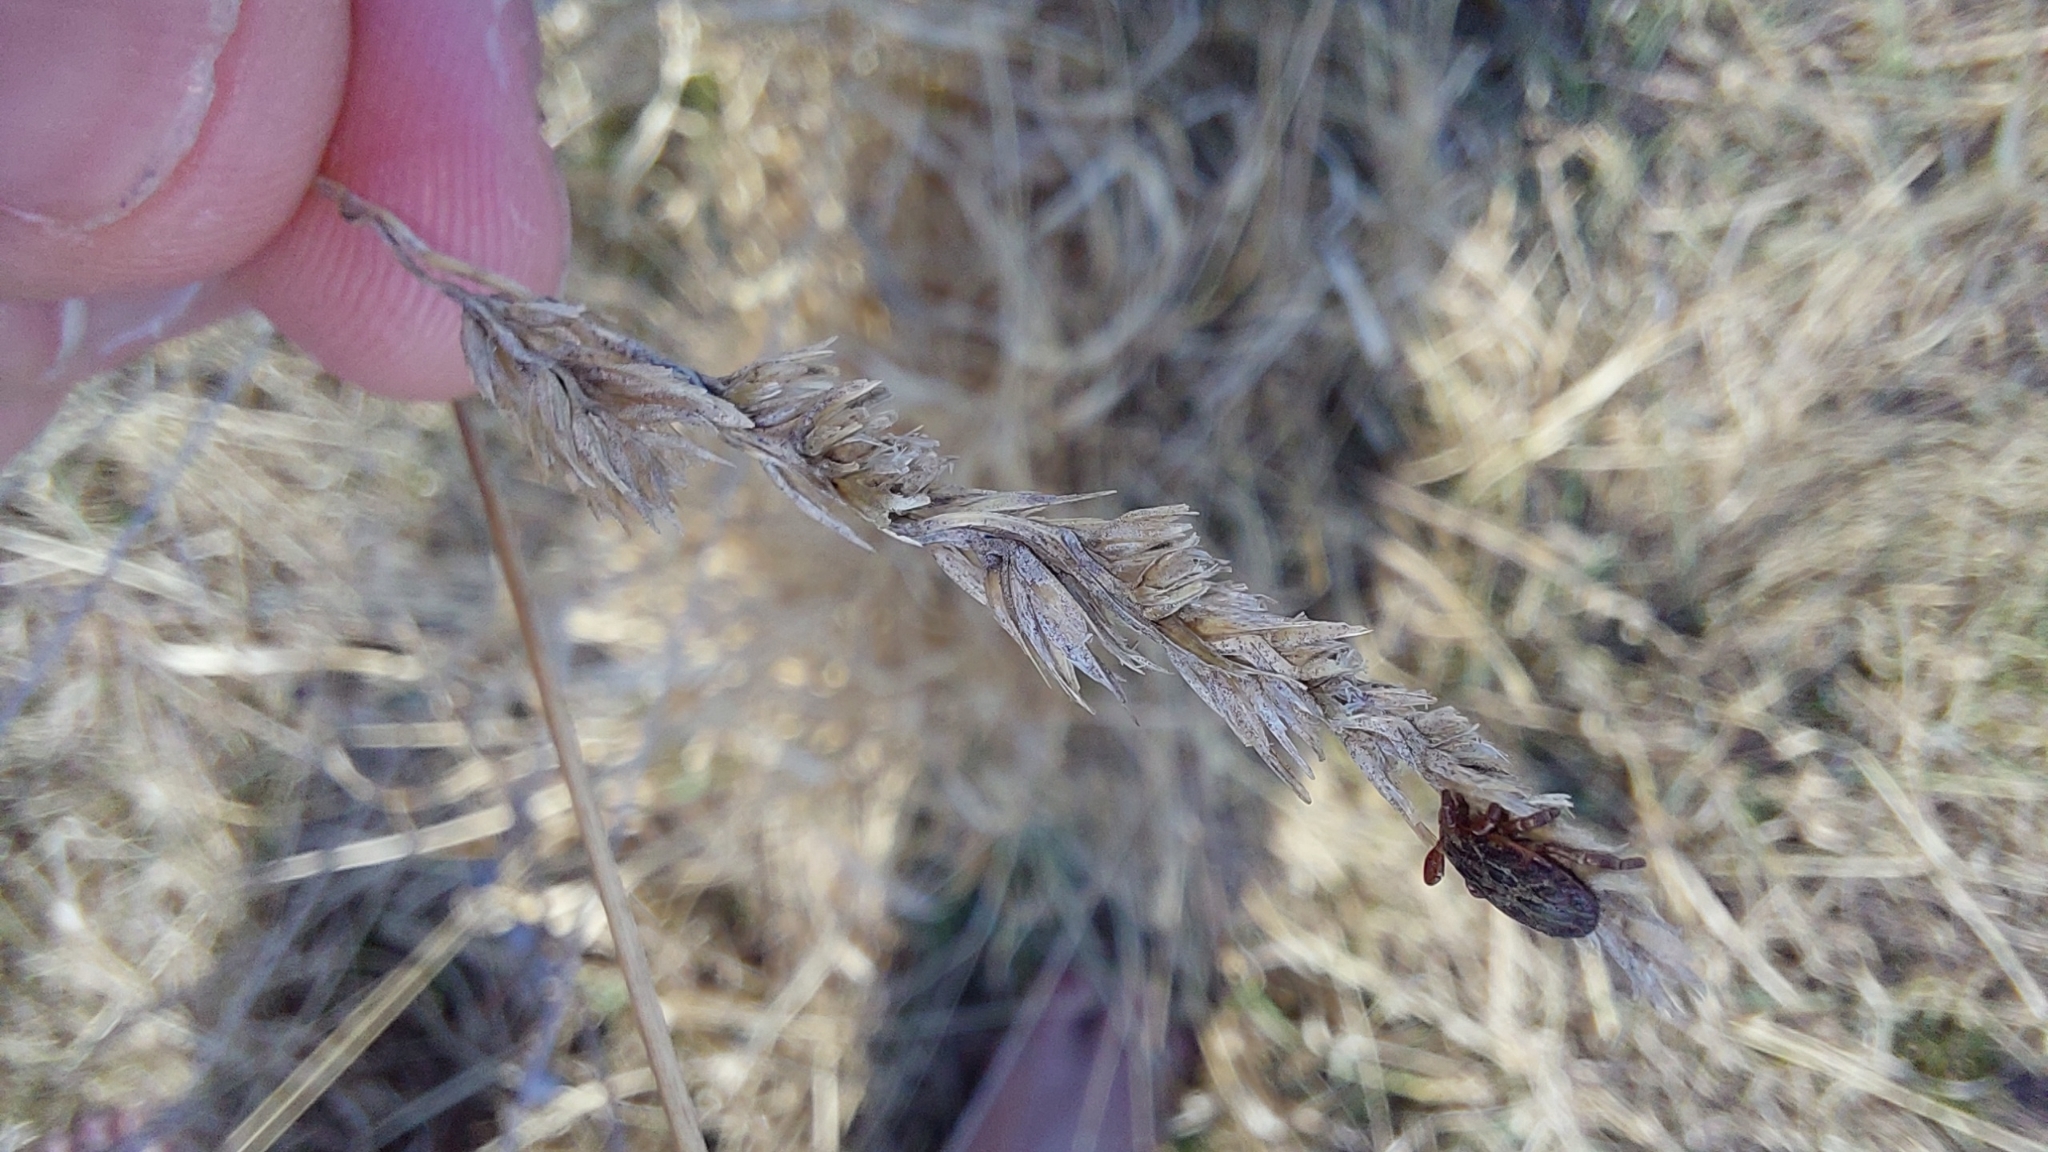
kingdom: Plantae
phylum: Tracheophyta
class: Liliopsida
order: Poales
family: Poaceae
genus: Dactylis
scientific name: Dactylis glomerata
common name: Orchardgrass
